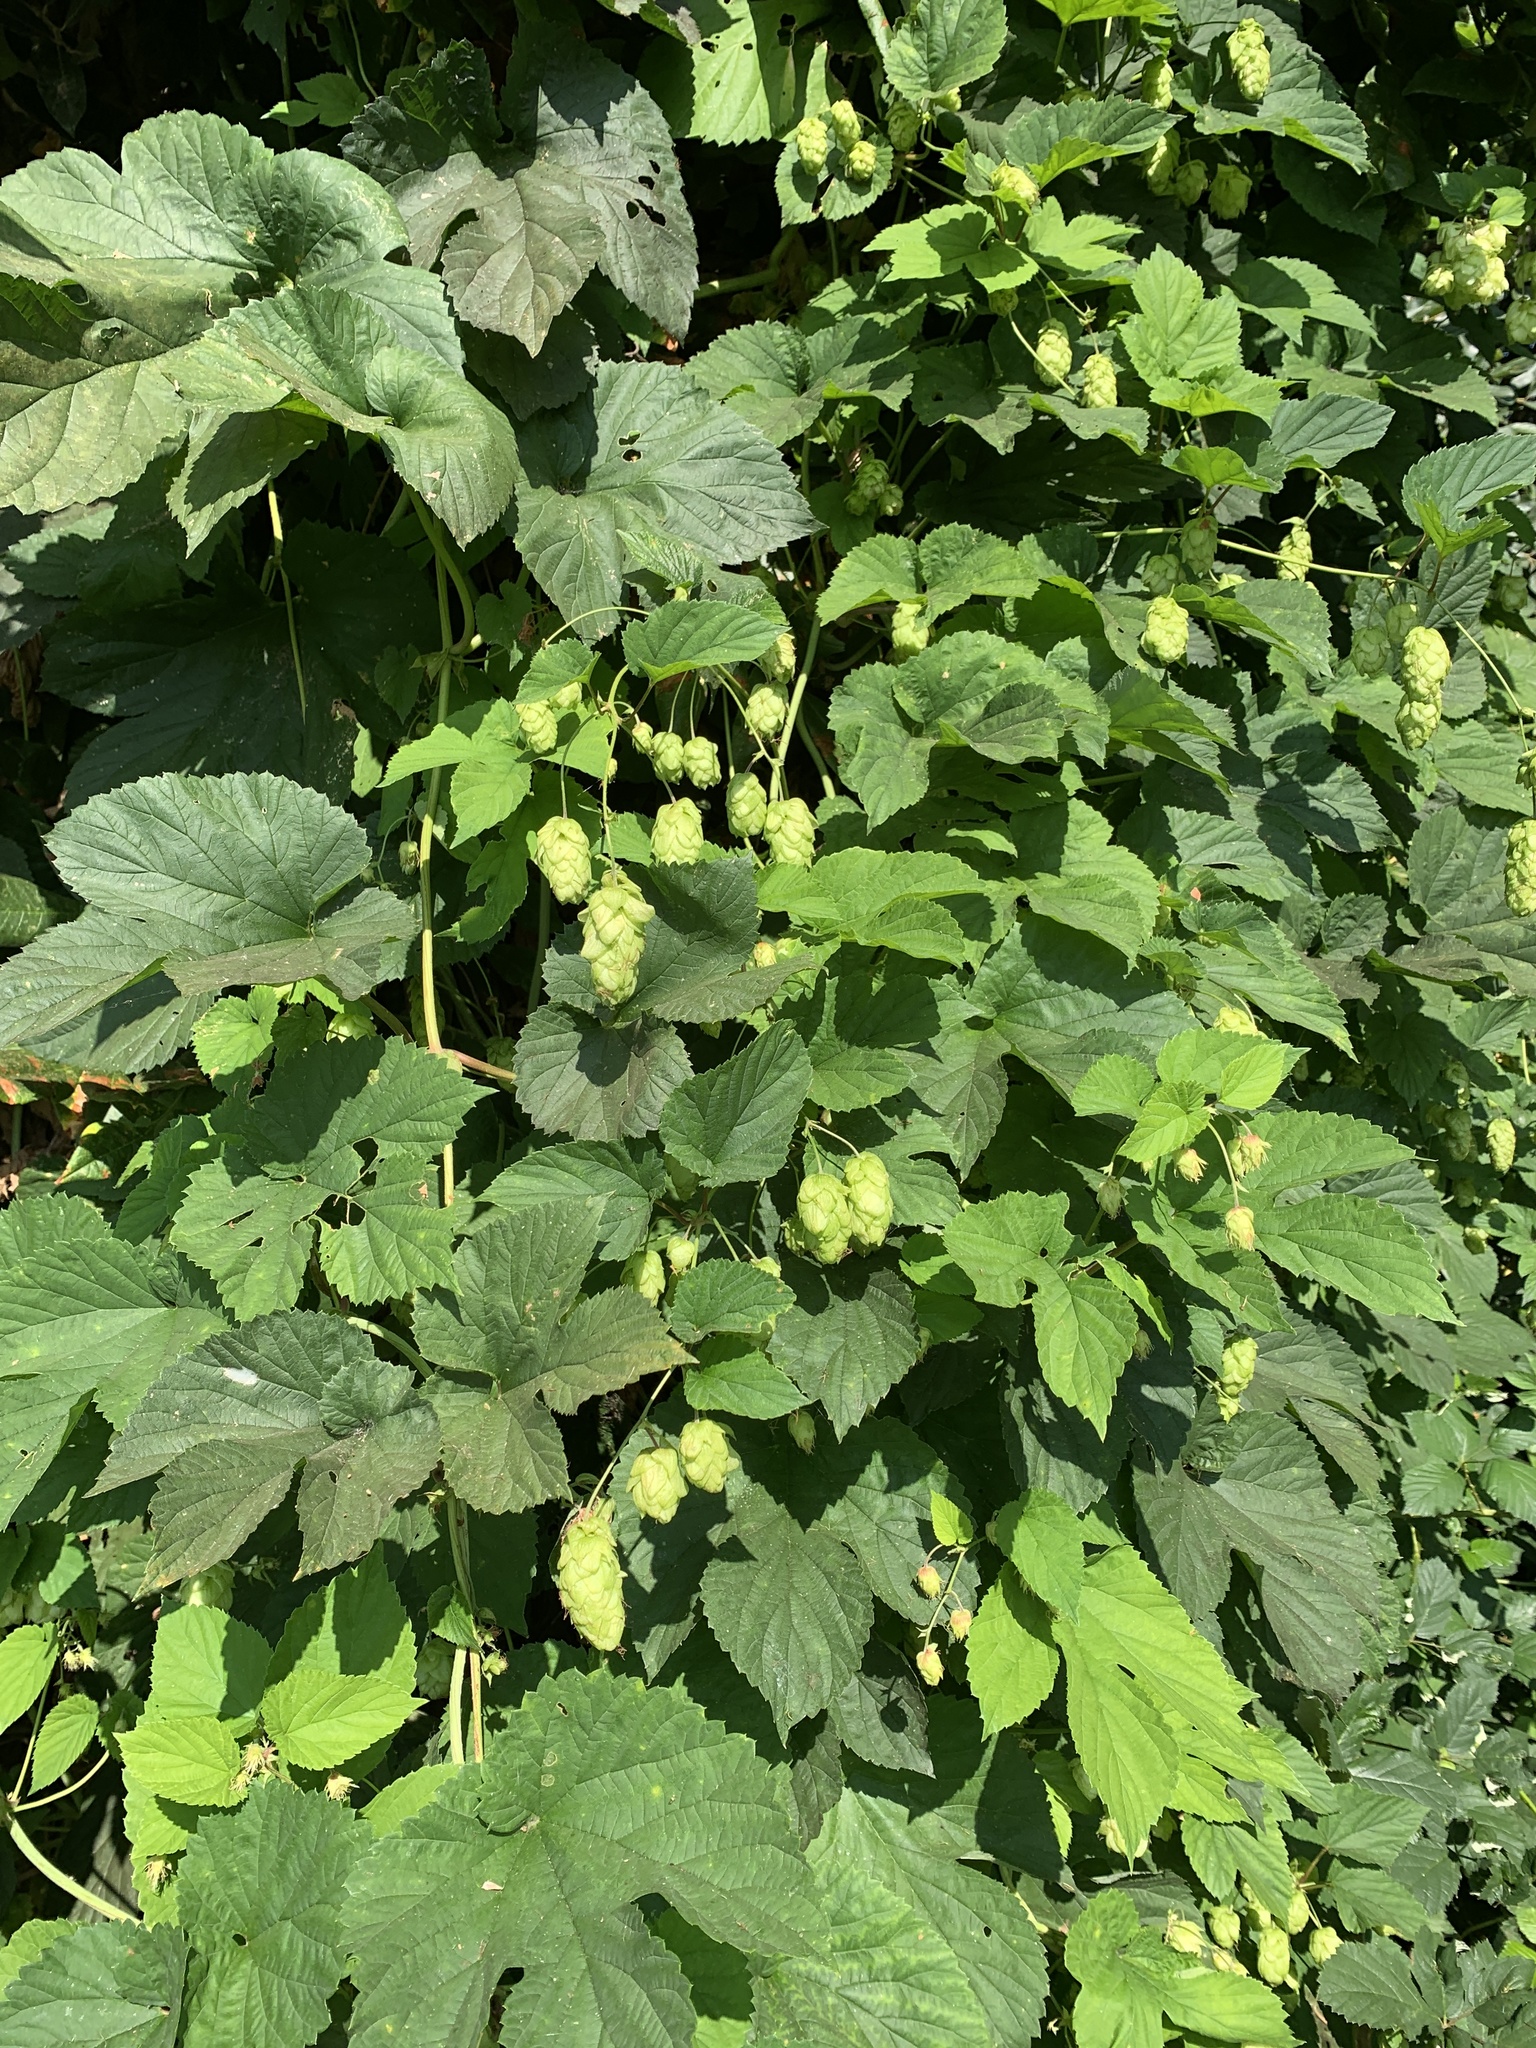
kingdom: Plantae
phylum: Tracheophyta
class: Magnoliopsida
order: Rosales
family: Cannabaceae
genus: Humulus
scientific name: Humulus lupulus
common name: Hop
